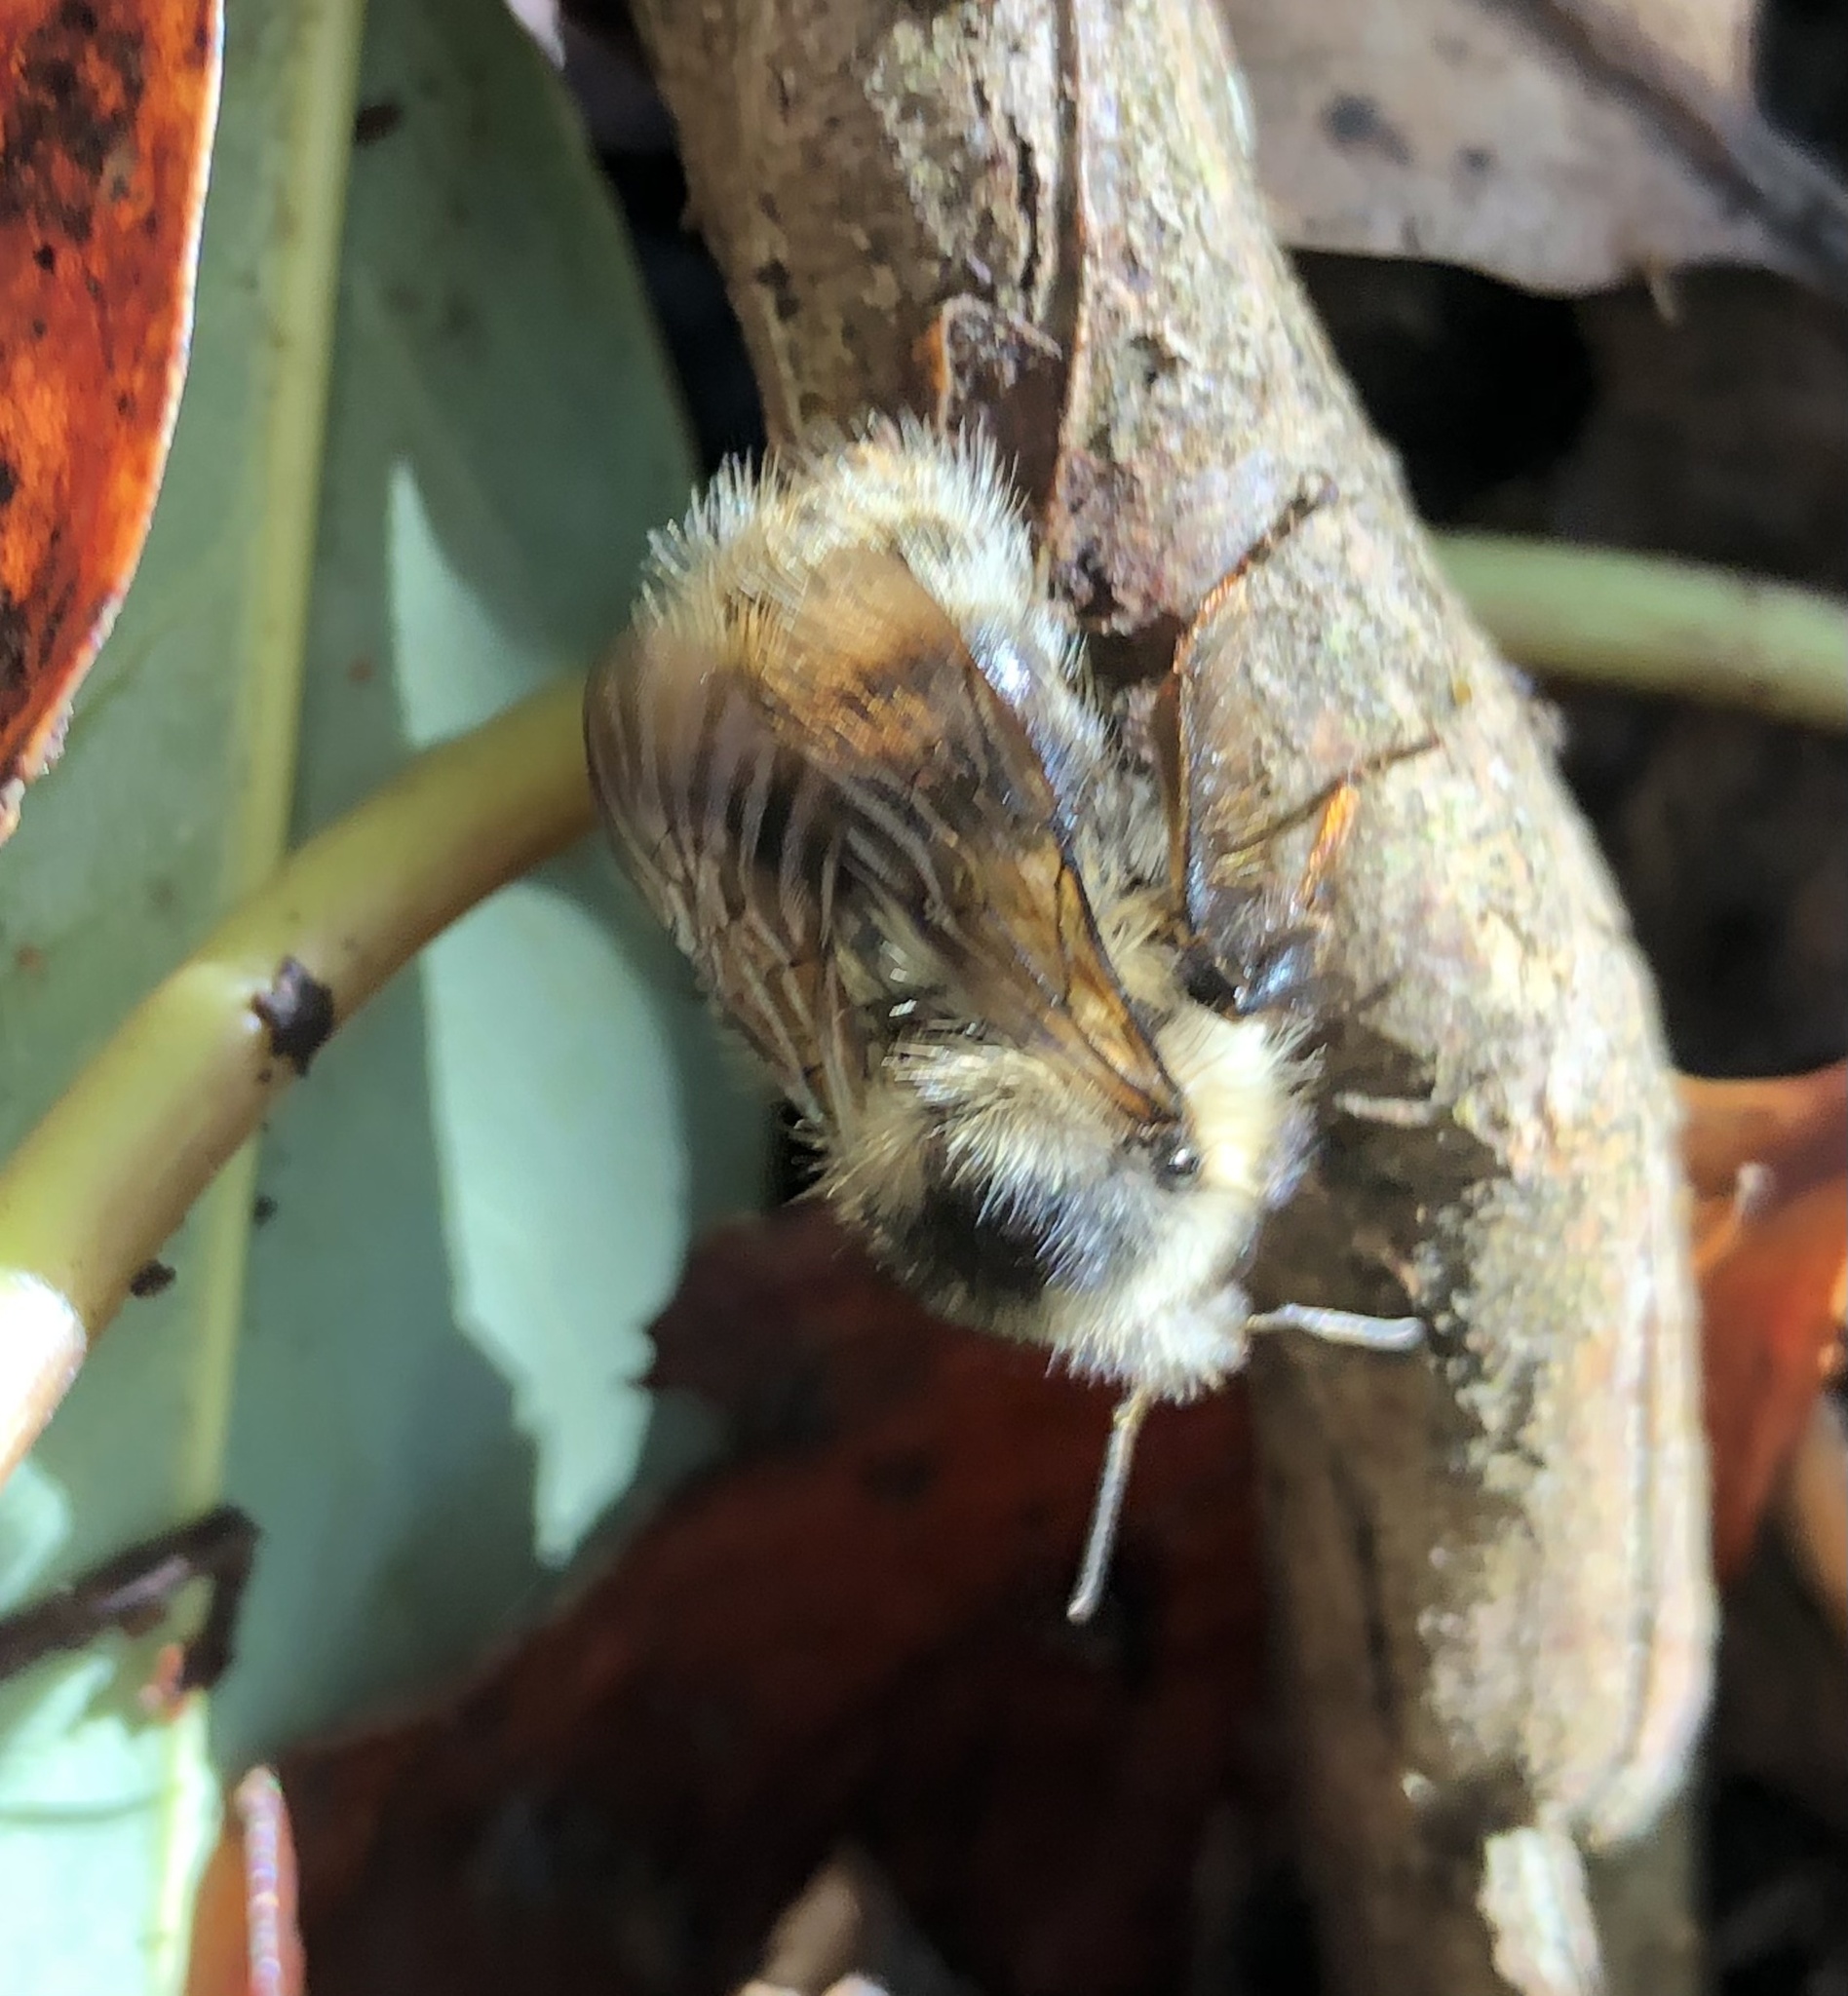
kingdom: Animalia
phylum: Arthropoda
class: Insecta
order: Hymenoptera
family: Apidae
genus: Bombus
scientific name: Bombus mixtus
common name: Fuzzy-horned bumble bee
